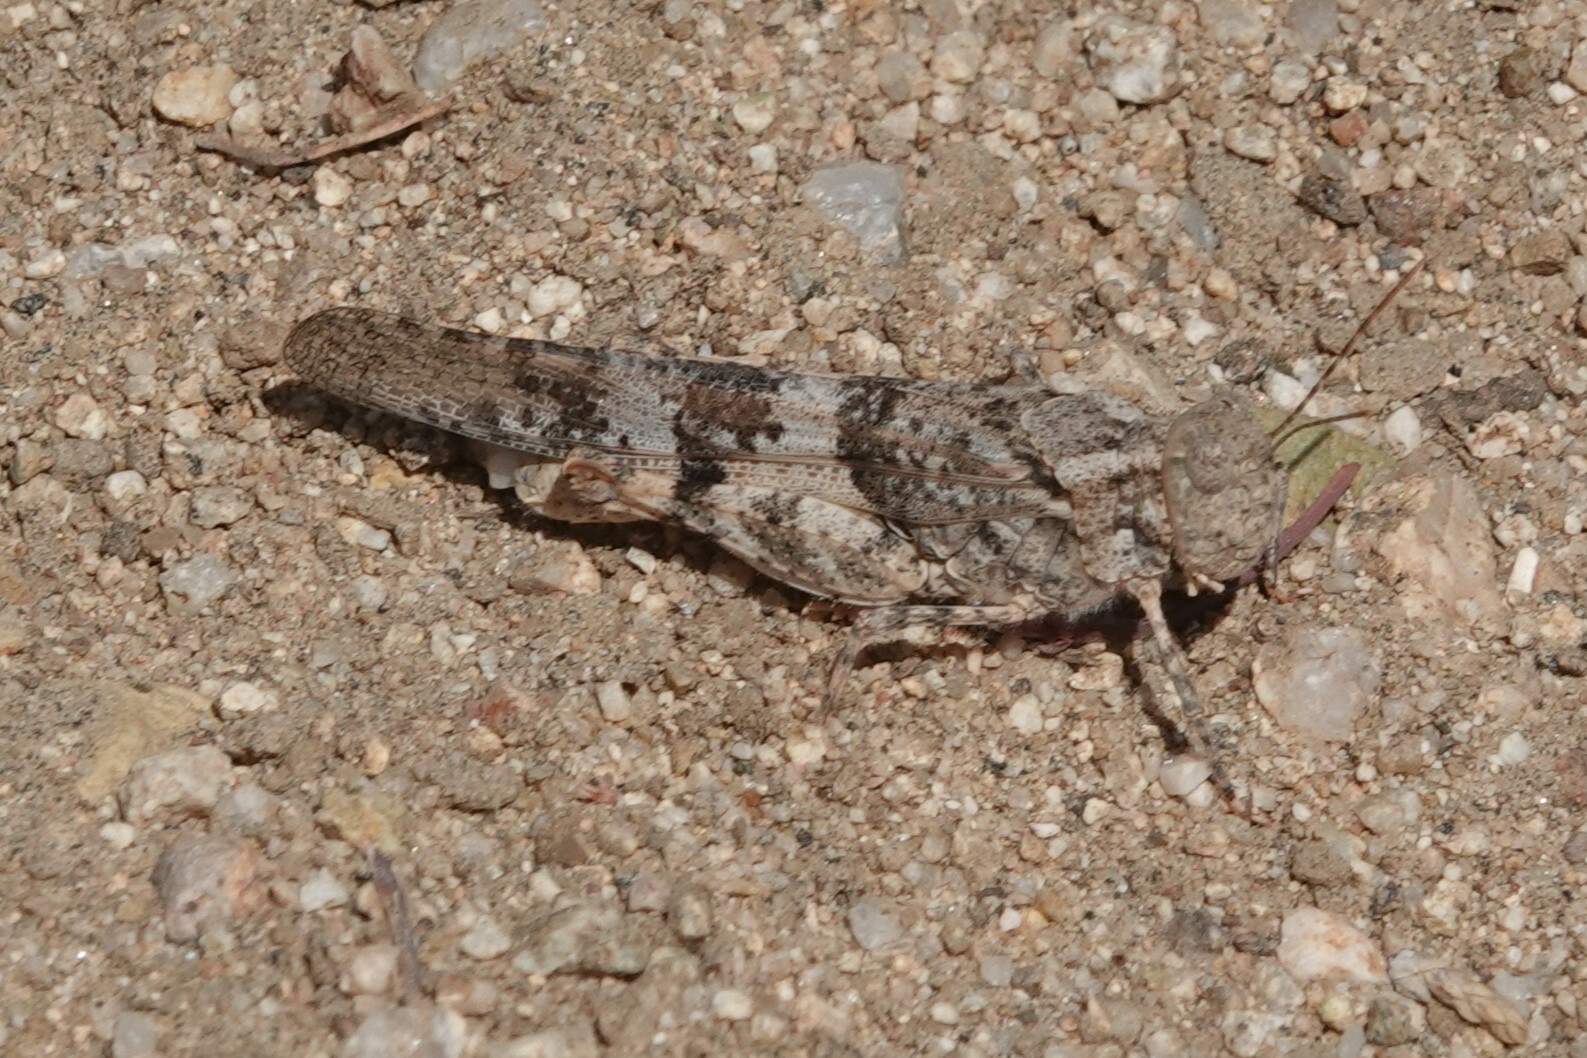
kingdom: Animalia
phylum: Arthropoda
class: Insecta
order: Orthoptera
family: Acrididae
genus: Trimerotropis
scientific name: Trimerotropis pallidipennis
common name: Pallid-winged grasshopper
